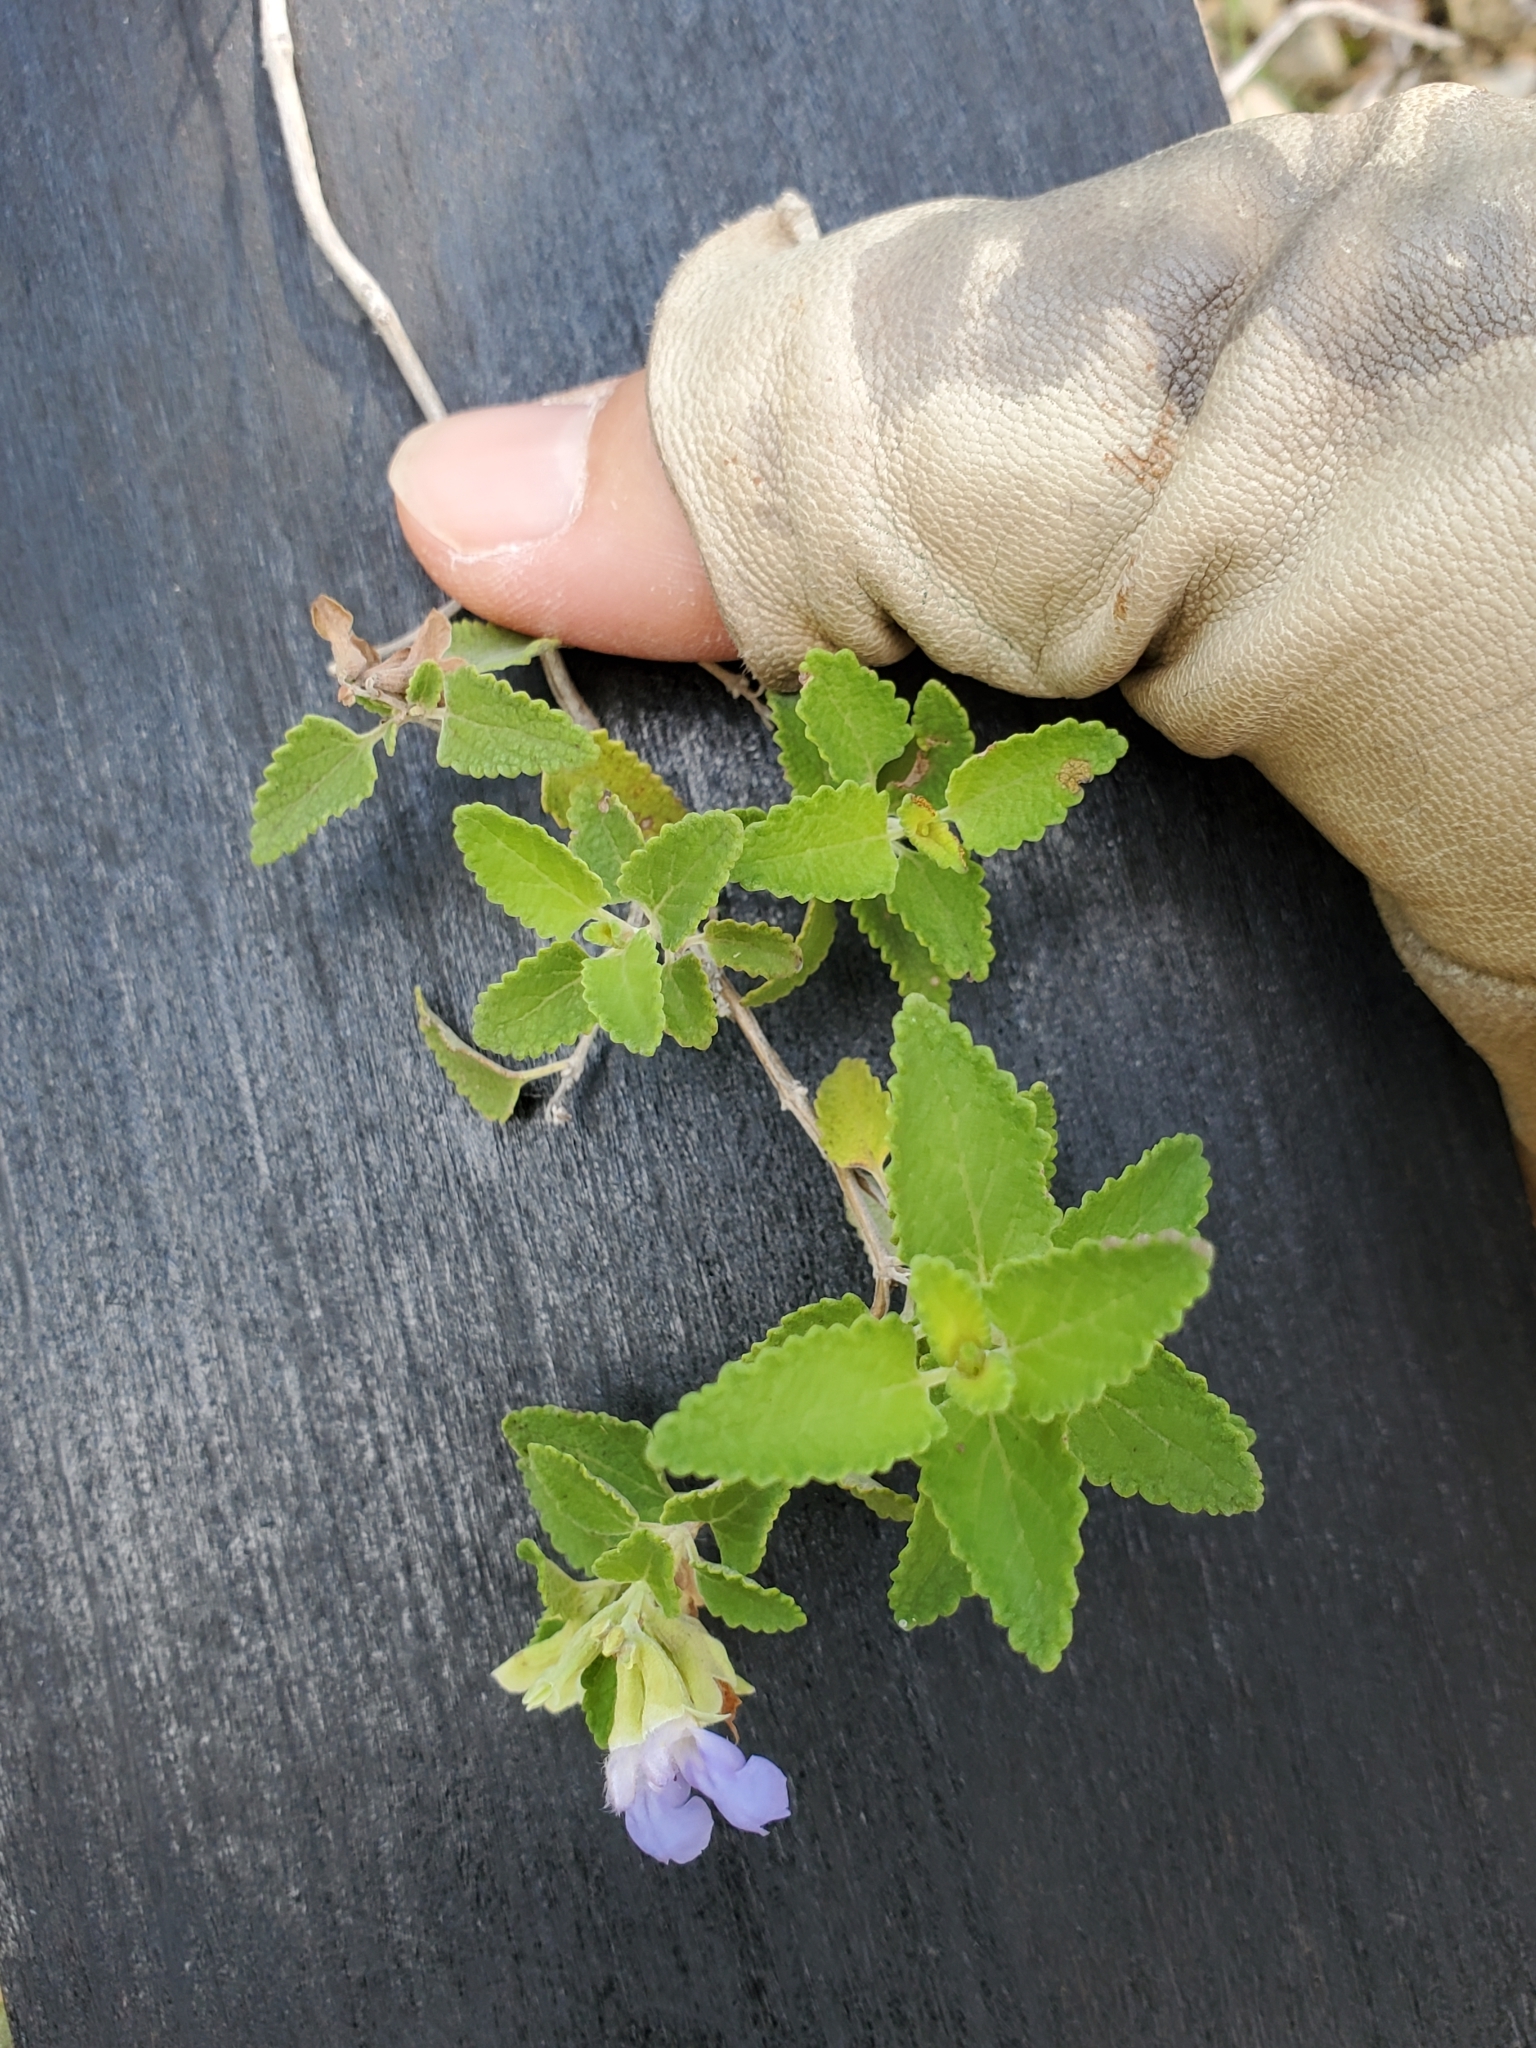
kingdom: Plantae
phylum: Tracheophyta
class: Magnoliopsida
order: Lamiales
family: Lamiaceae
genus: Salvia
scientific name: Salvia ballotiflora
